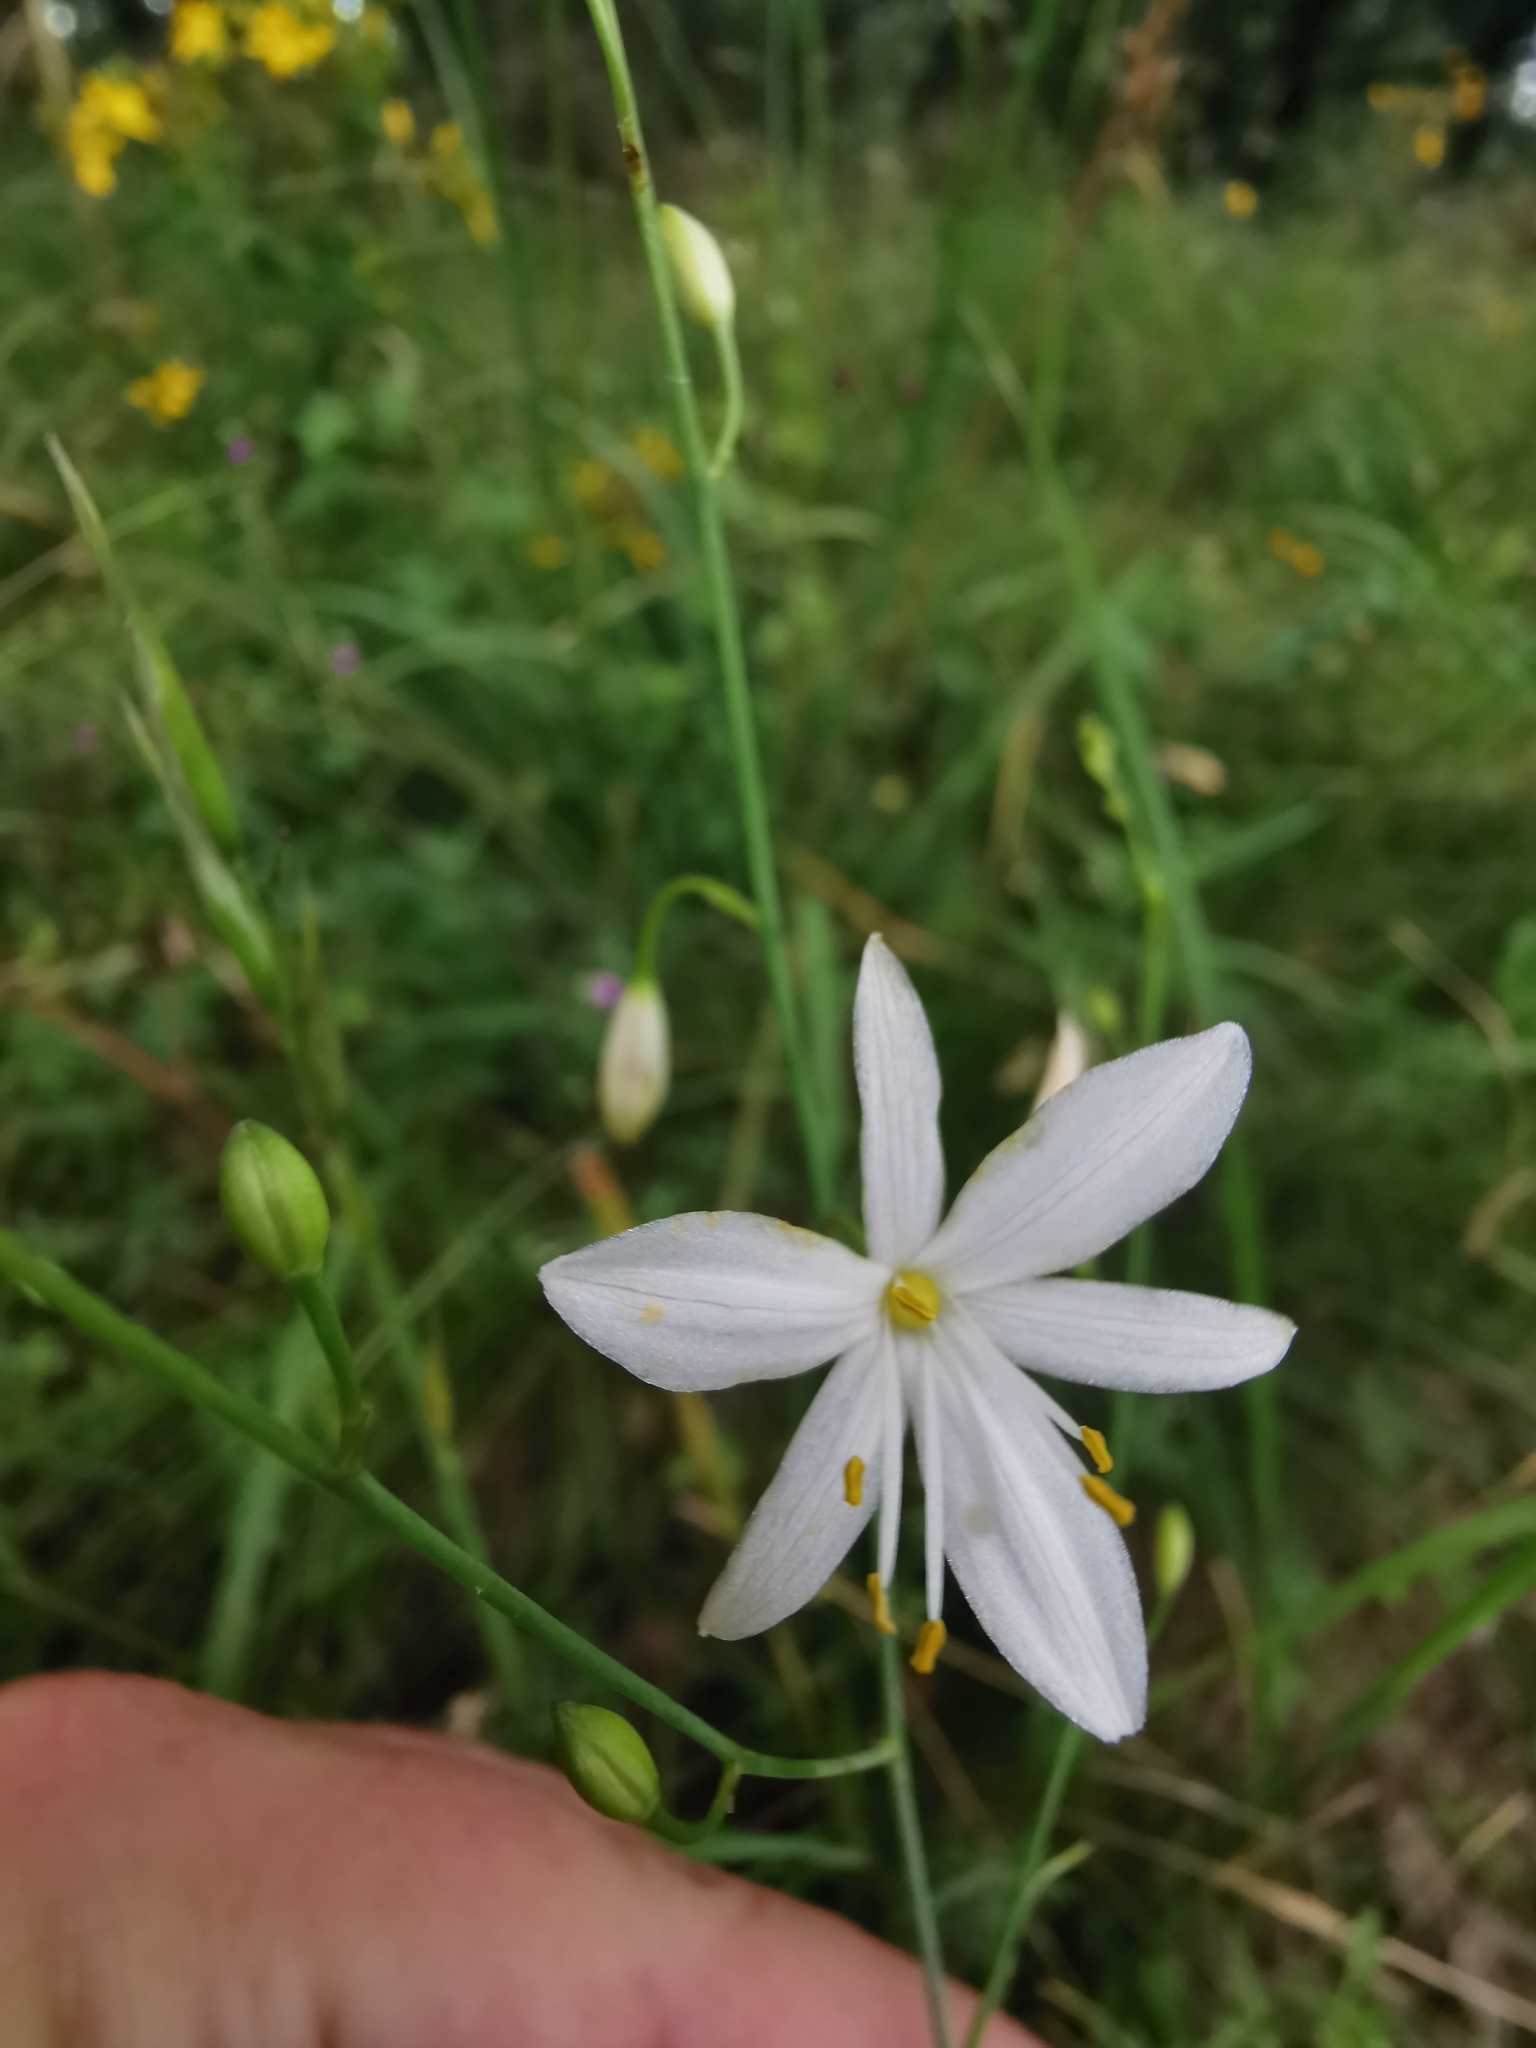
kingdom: Plantae
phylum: Tracheophyta
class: Liliopsida
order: Asparagales
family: Asparagaceae
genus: Anthericum
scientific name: Anthericum ramosum
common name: Branched st. bernard's-lily
